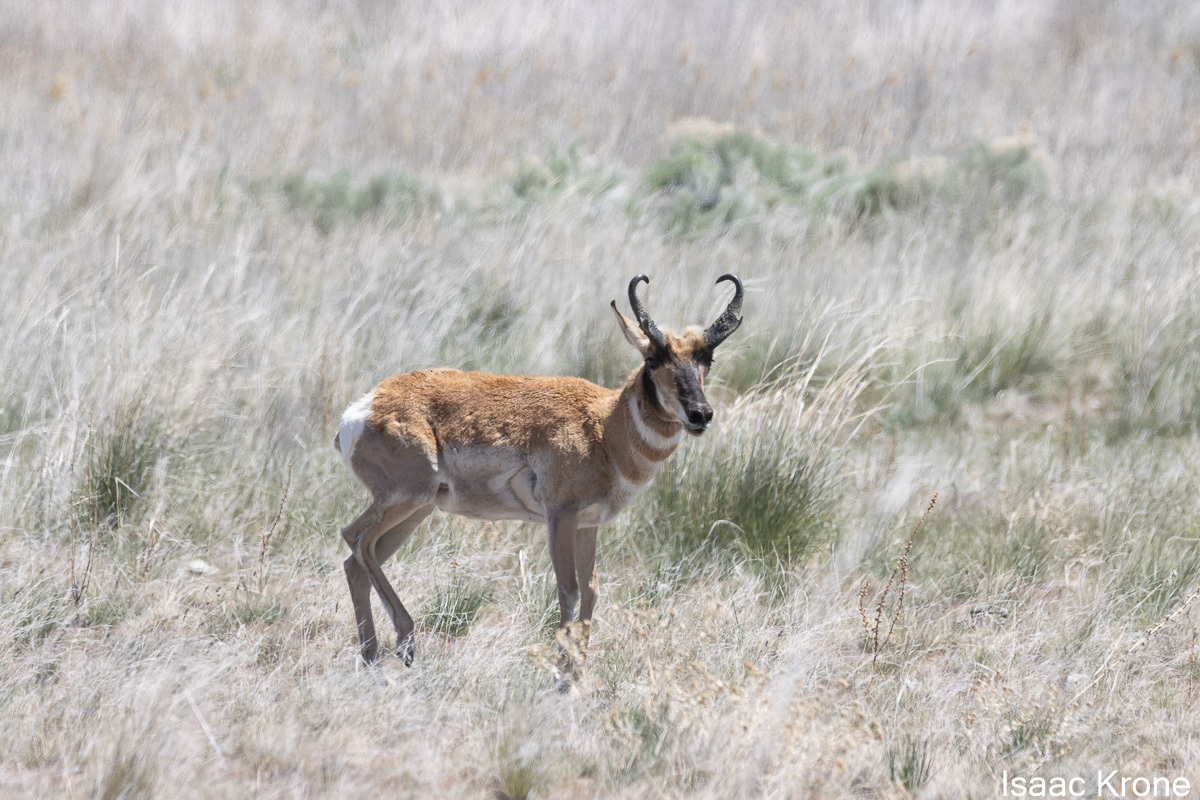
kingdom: Animalia
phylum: Chordata
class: Mammalia
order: Artiodactyla
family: Antilocapridae
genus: Antilocapra
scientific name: Antilocapra americana
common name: Pronghorn
